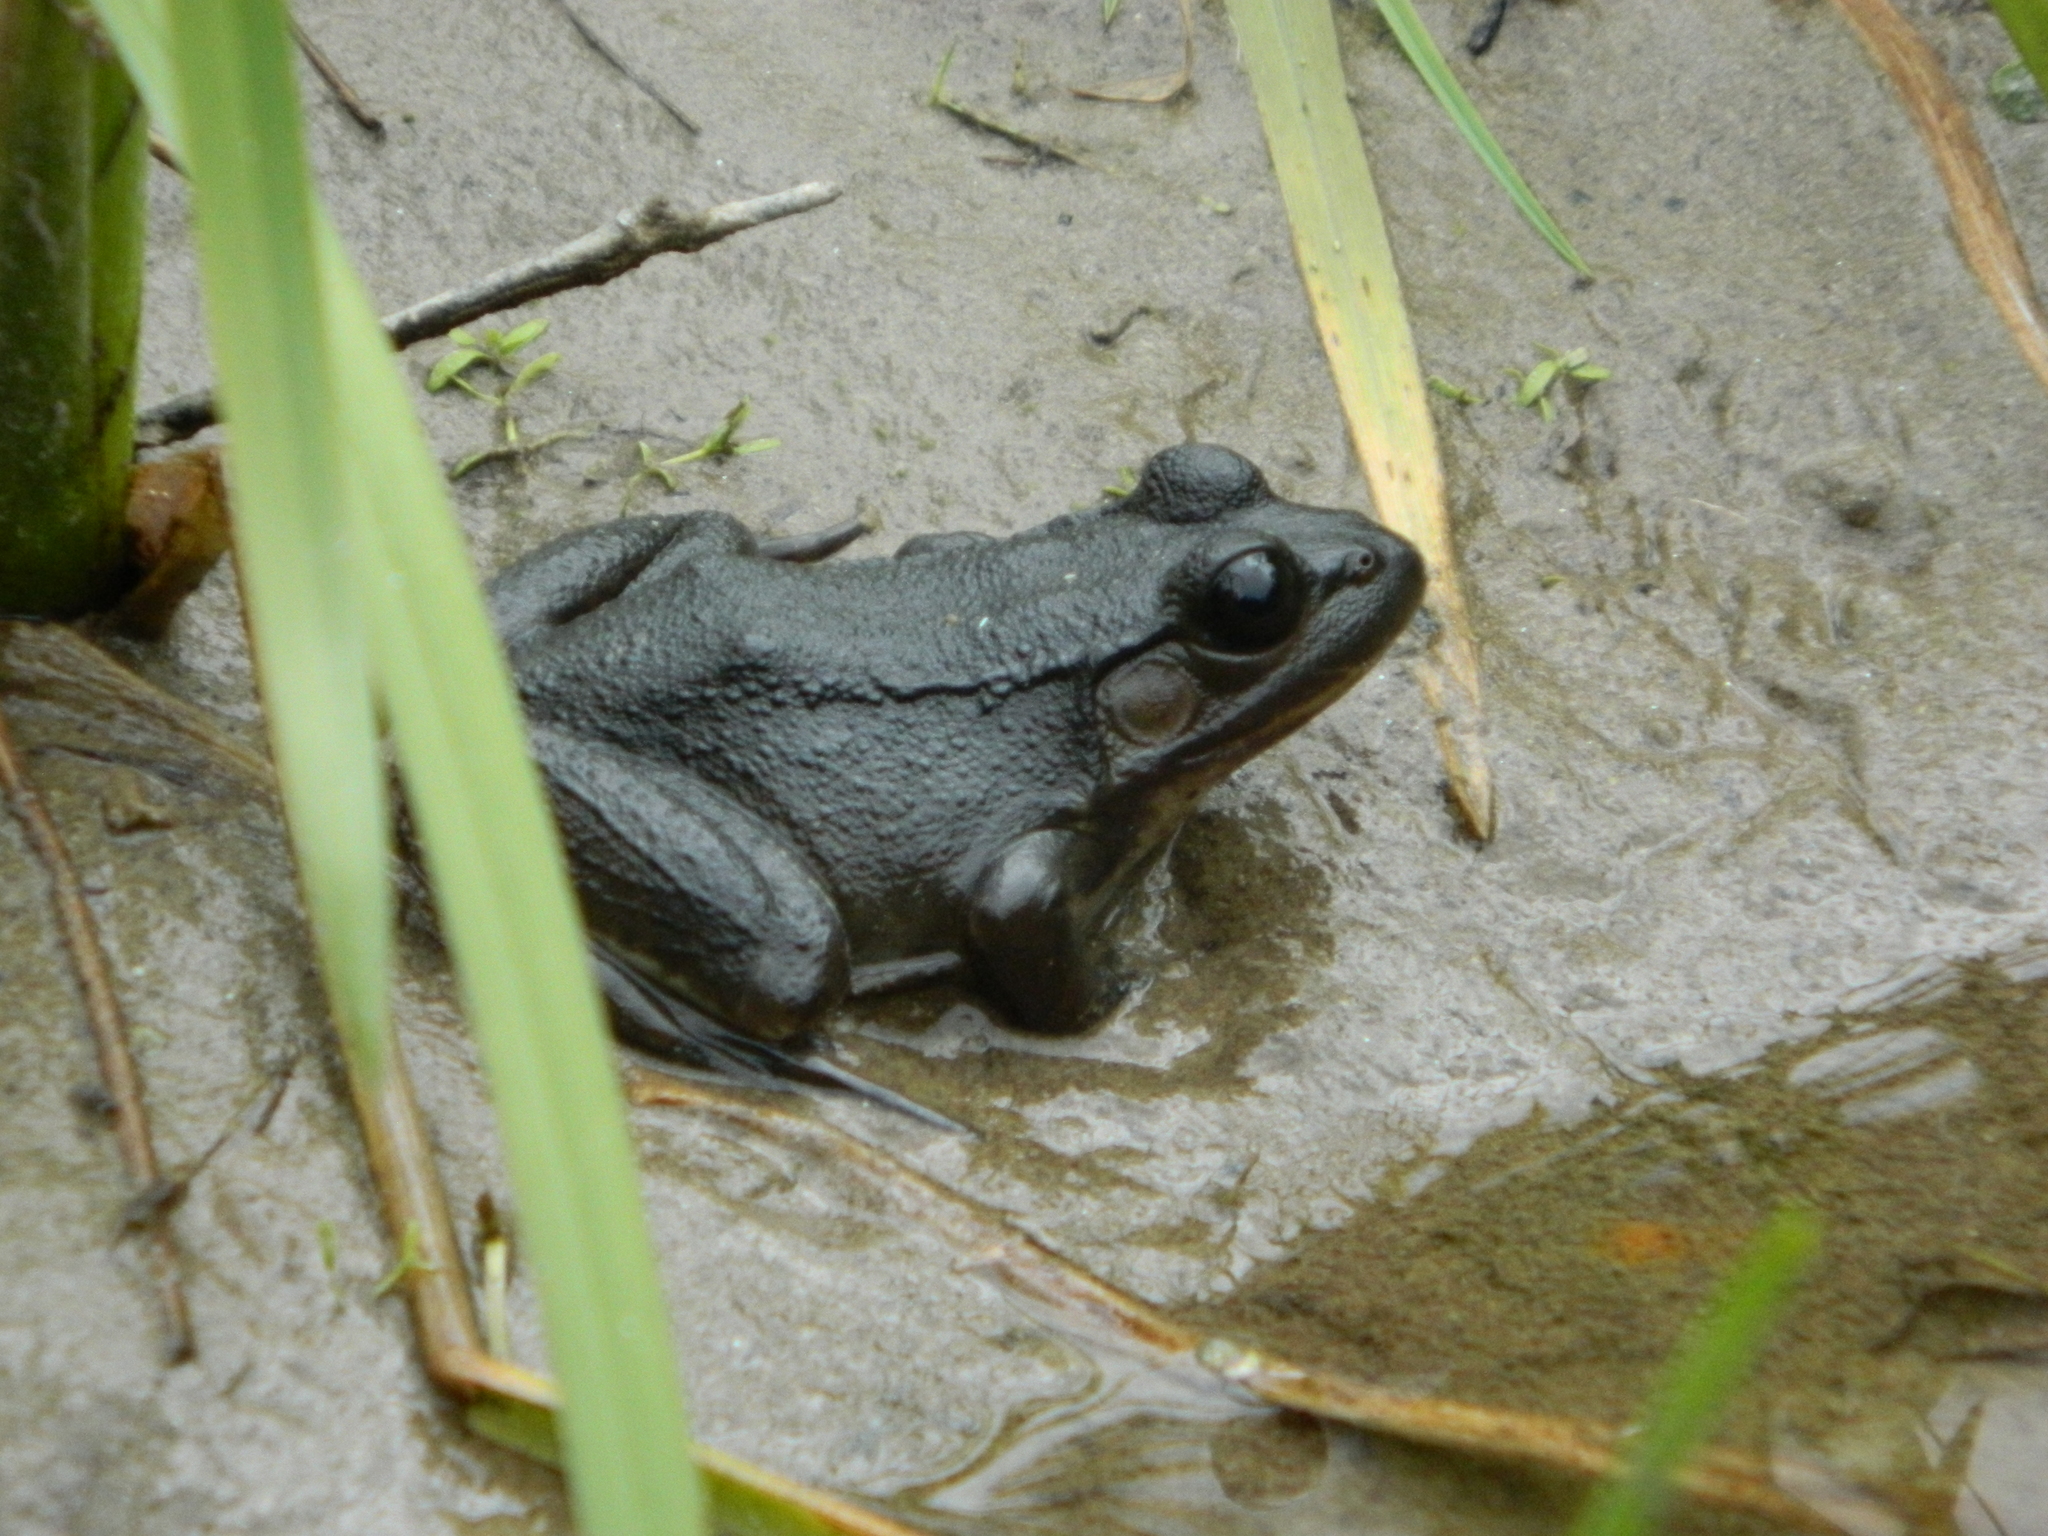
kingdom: Animalia
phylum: Chordata
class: Amphibia
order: Anura
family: Ranidae
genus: Lithobates
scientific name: Lithobates clamitans
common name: Green frog
